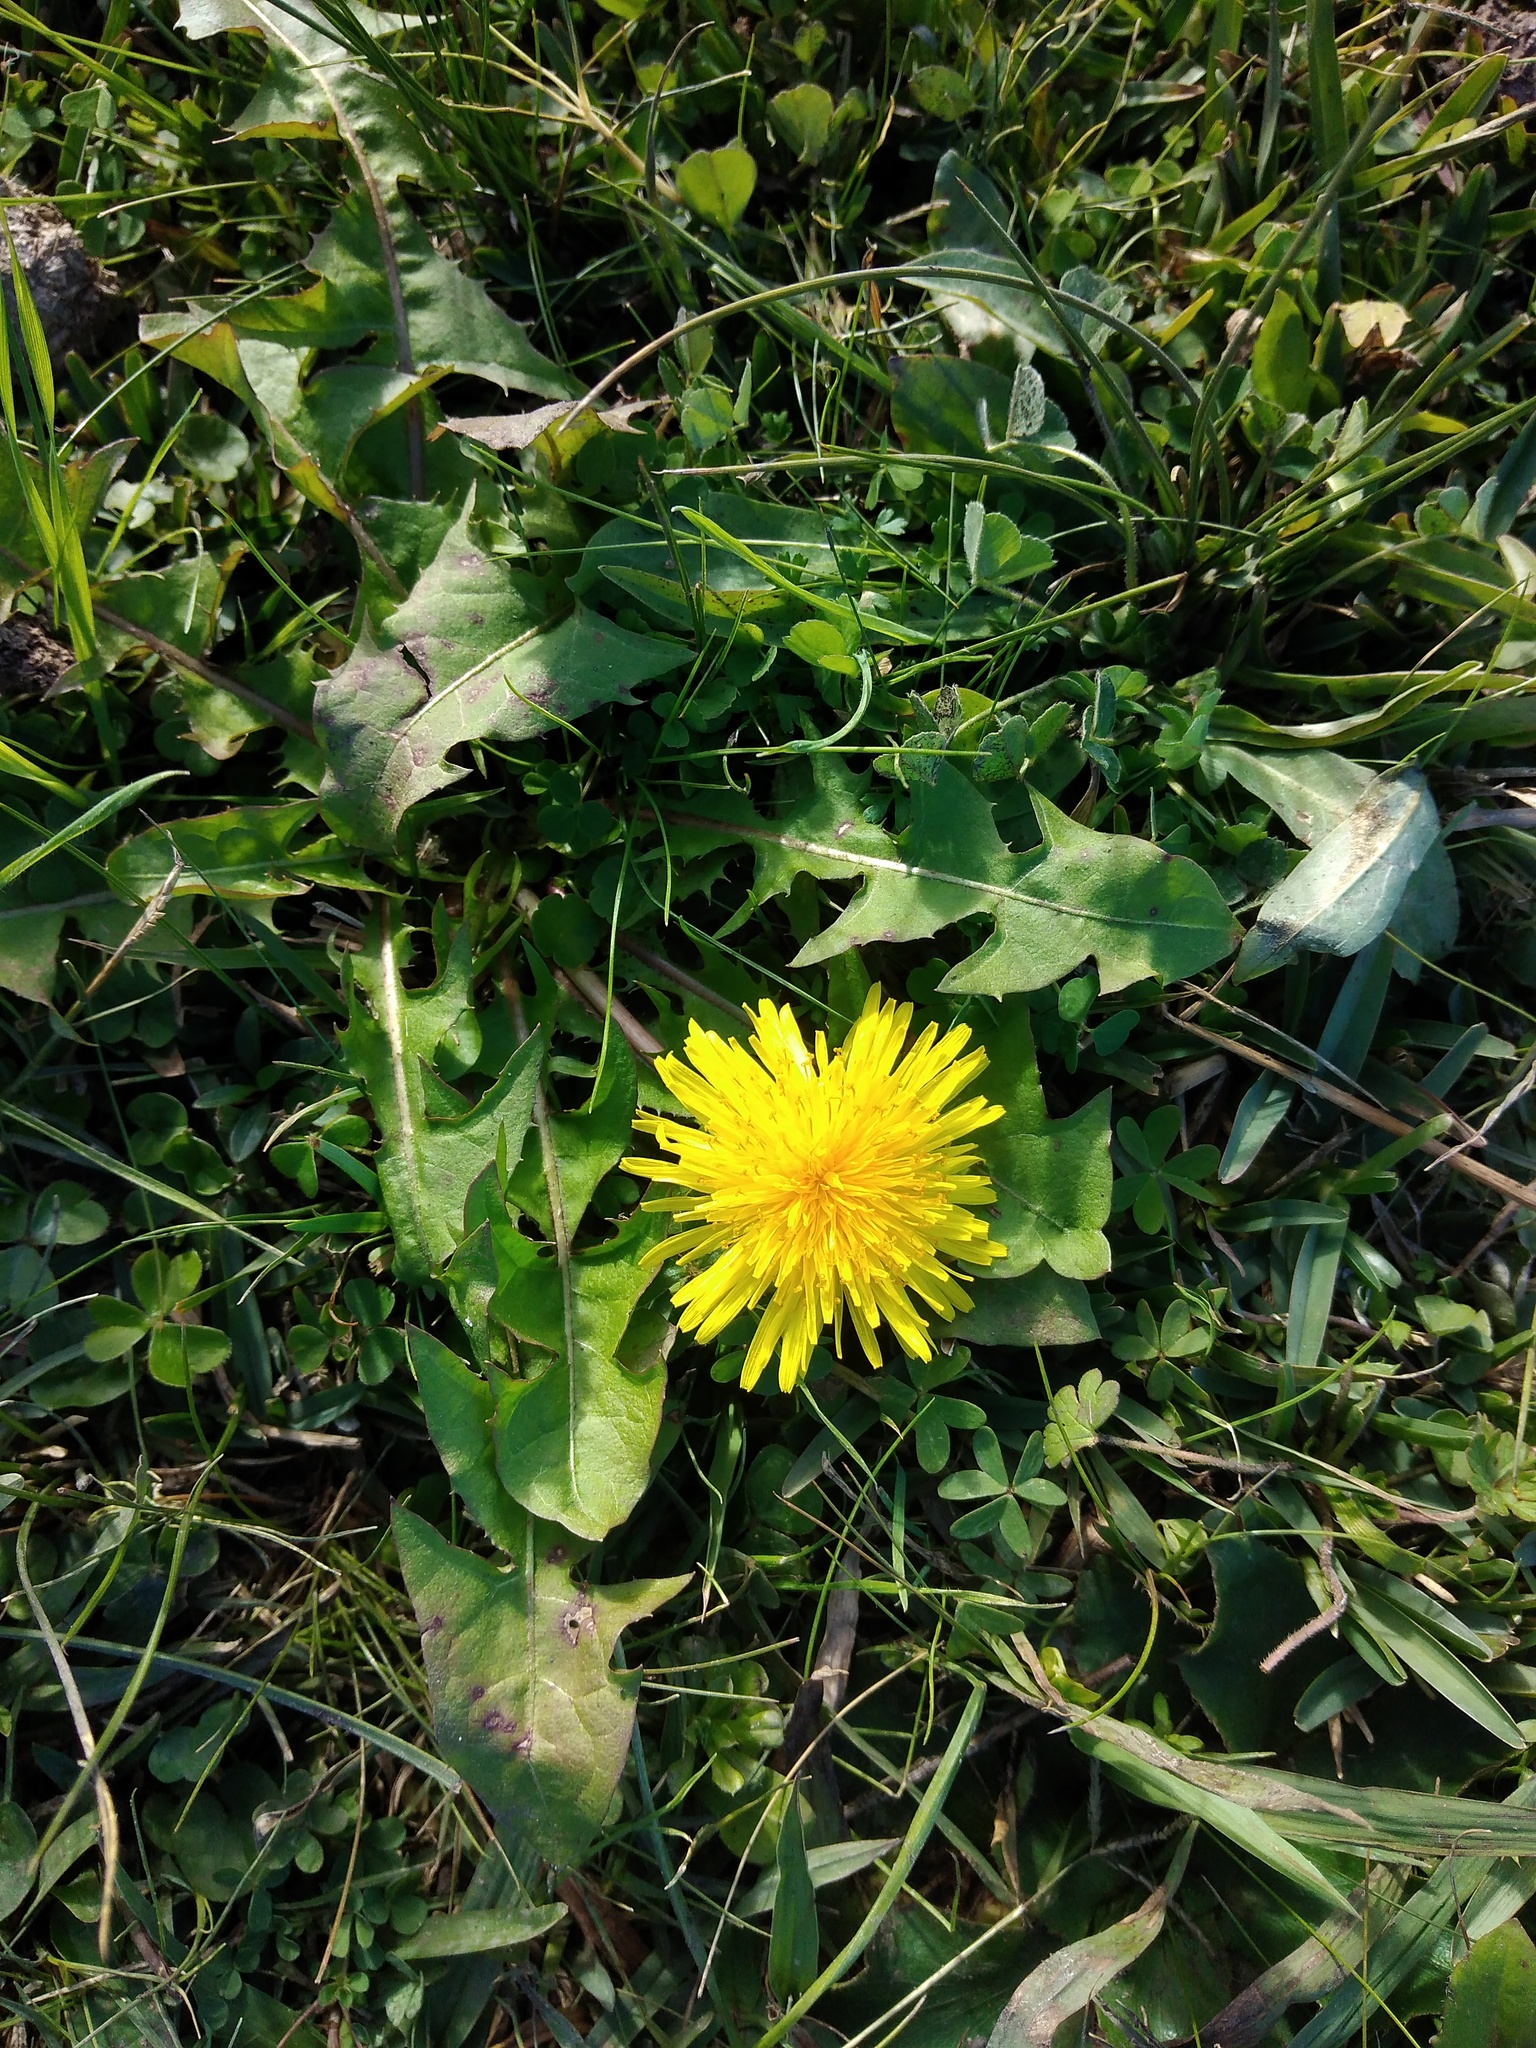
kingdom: Plantae
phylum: Tracheophyta
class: Magnoliopsida
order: Asterales
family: Asteraceae
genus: Taraxacum
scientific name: Taraxacum officinale
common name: Common dandelion
